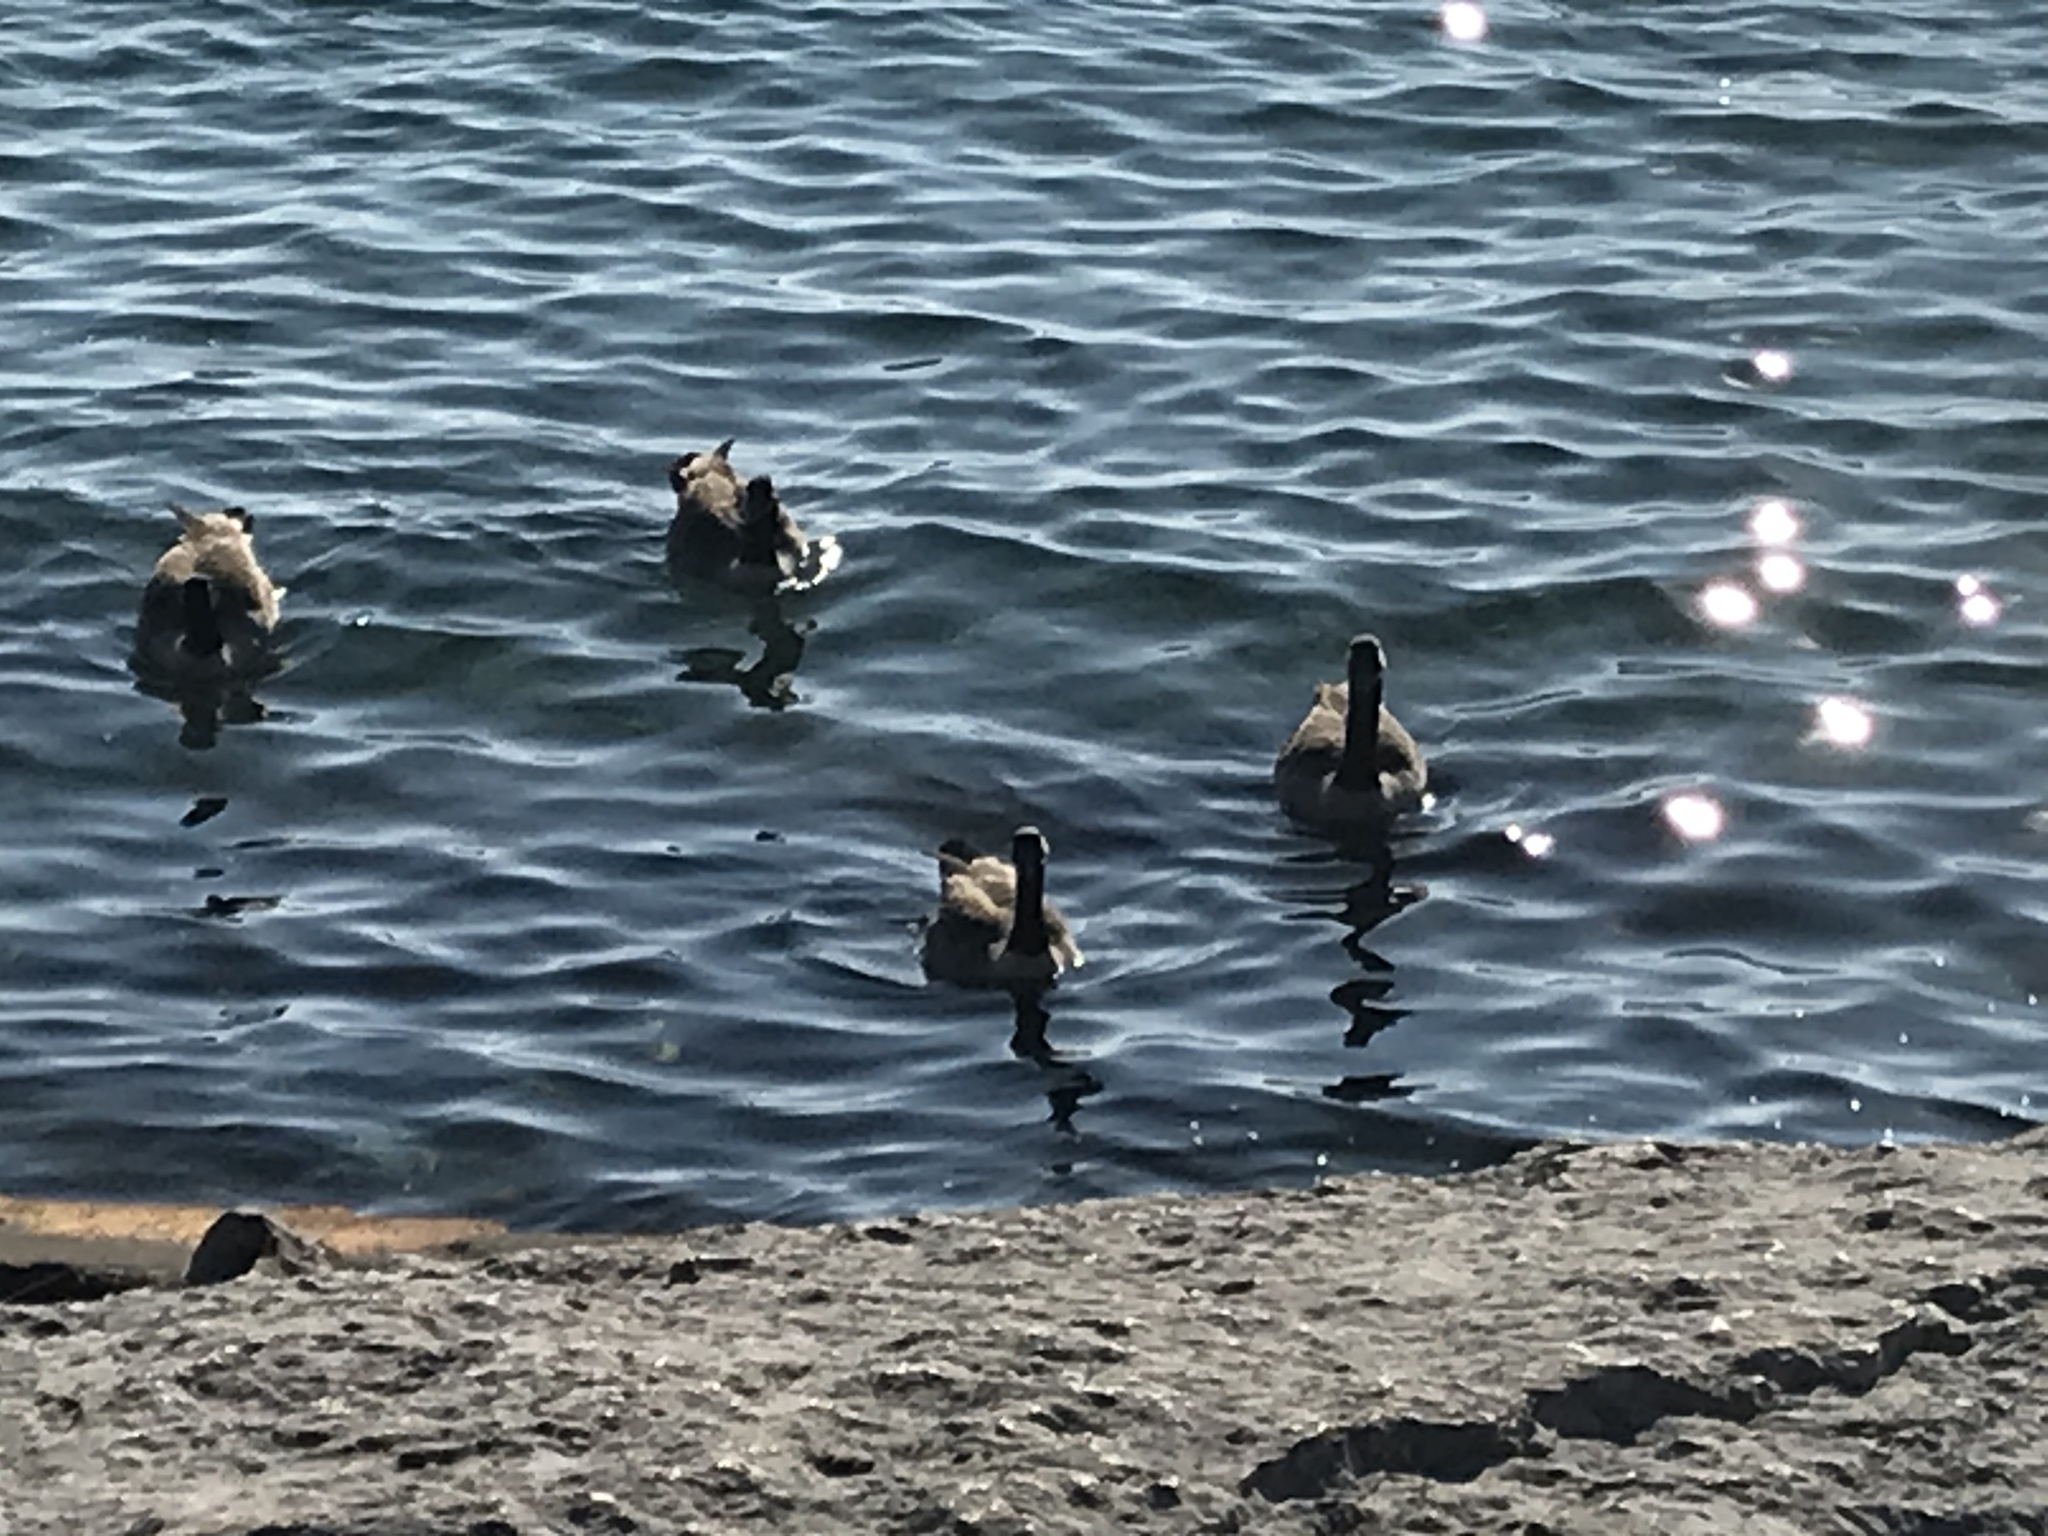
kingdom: Animalia
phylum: Chordata
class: Aves
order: Anseriformes
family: Anatidae
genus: Branta
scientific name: Branta canadensis
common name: Canada goose
